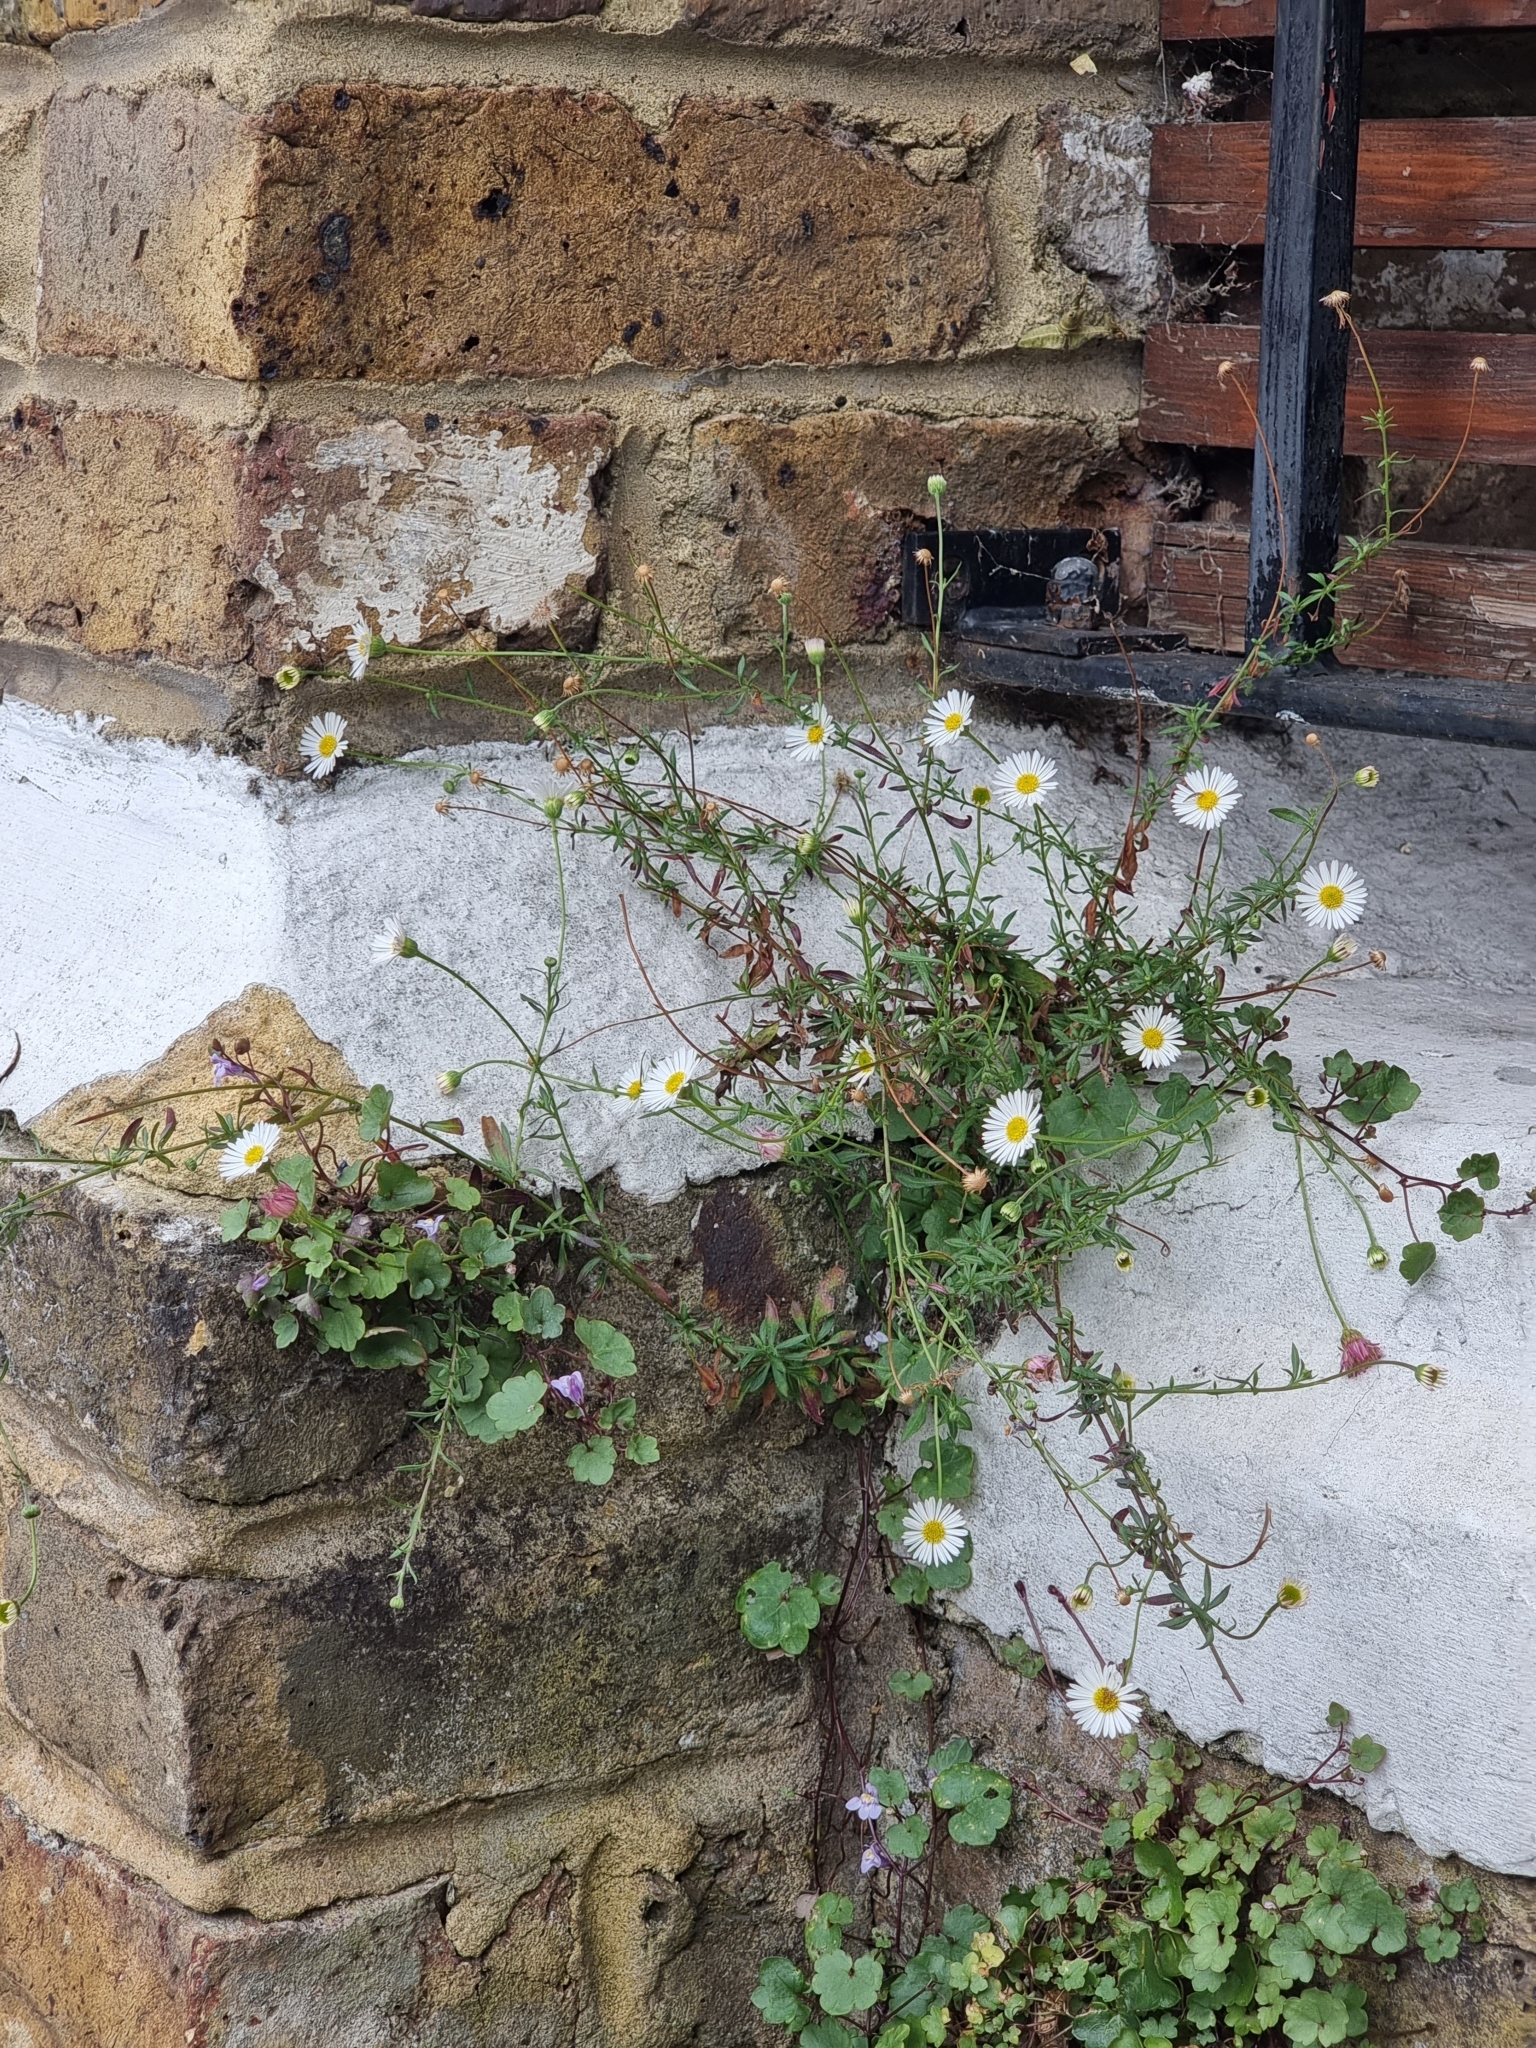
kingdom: Plantae
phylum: Tracheophyta
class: Magnoliopsida
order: Asterales
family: Asteraceae
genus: Erigeron
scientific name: Erigeron karvinskianus
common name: Mexican fleabane
